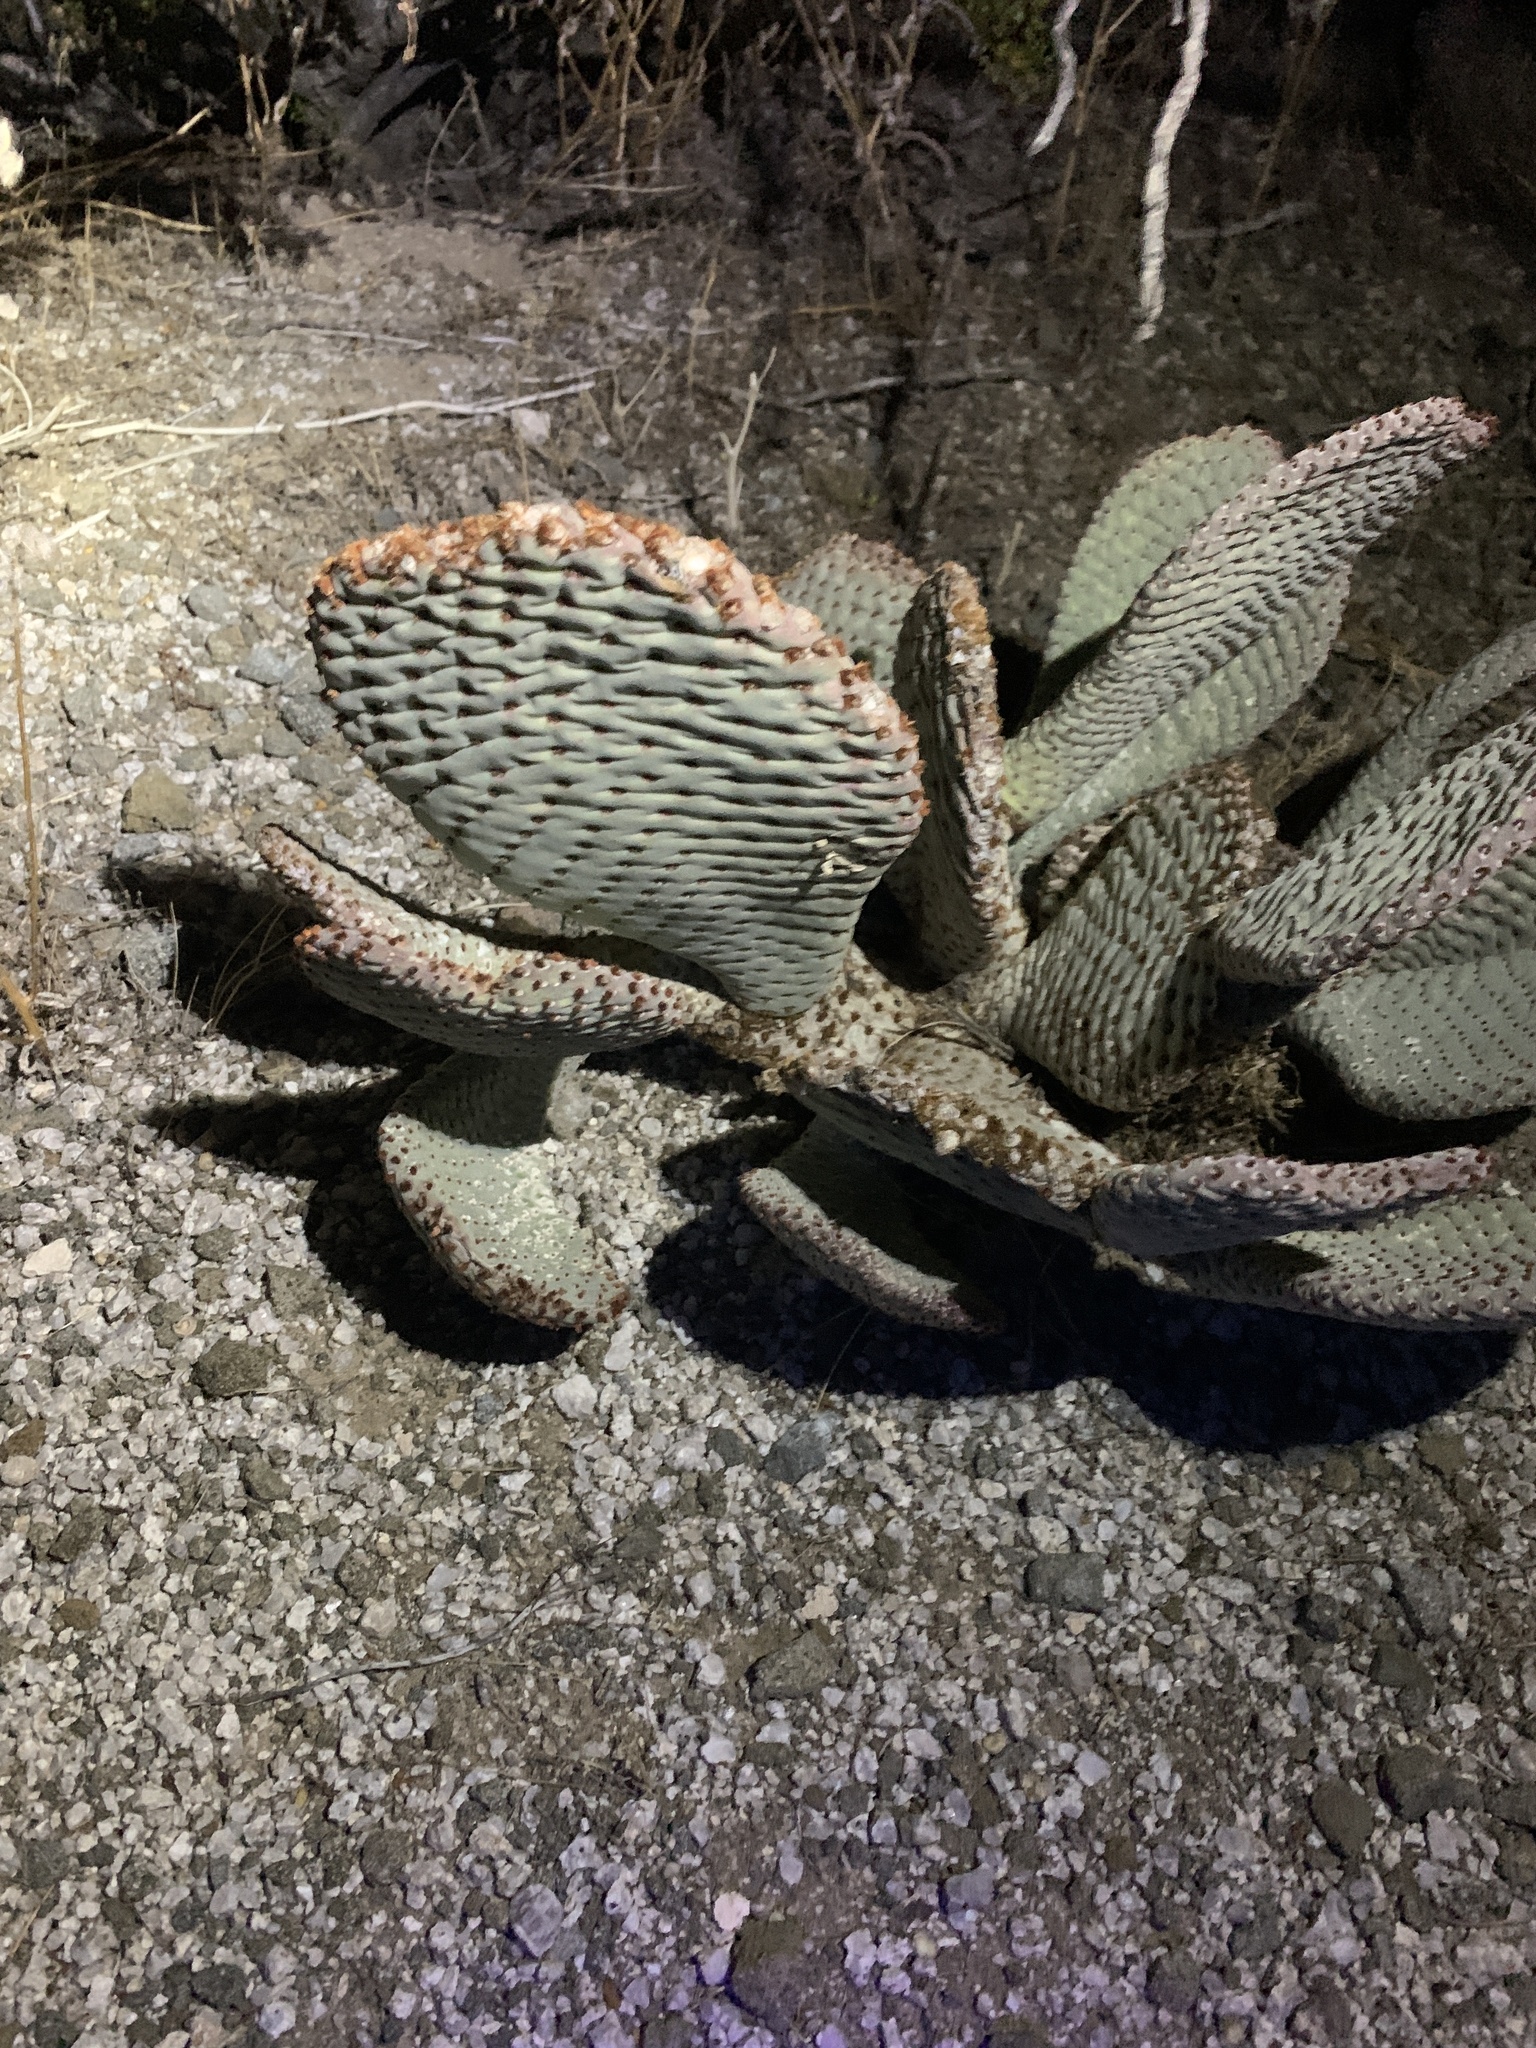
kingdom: Plantae
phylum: Tracheophyta
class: Magnoliopsida
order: Caryophyllales
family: Cactaceae
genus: Opuntia
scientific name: Opuntia basilaris
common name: Beavertail prickly-pear
